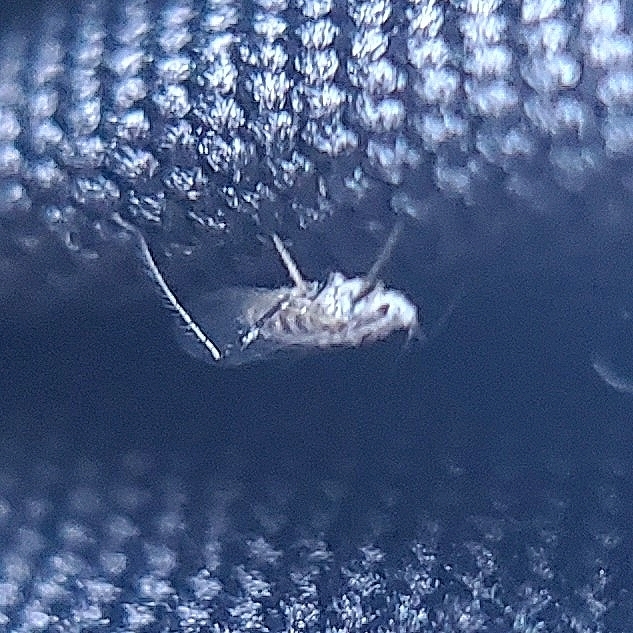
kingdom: Animalia
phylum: Arthropoda
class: Insecta
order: Hemiptera
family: Aphididae
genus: Eulachnus
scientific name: Eulachnus rileyi
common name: Active gray pine needle aphid
